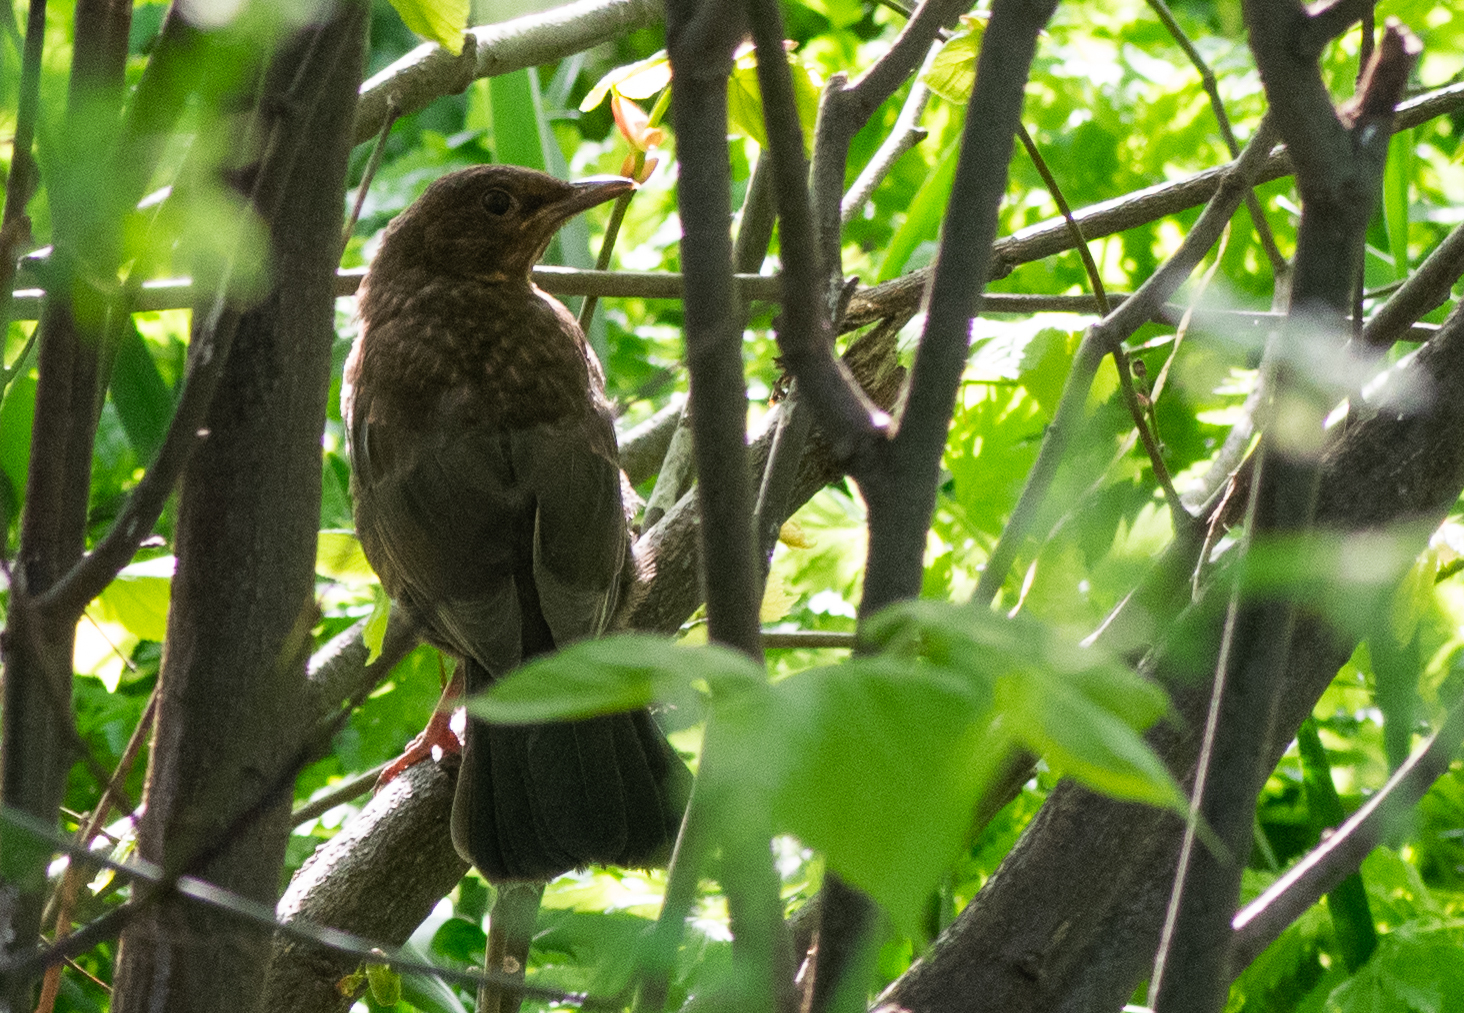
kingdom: Animalia
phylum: Chordata
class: Aves
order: Passeriformes
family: Turdidae
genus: Turdus
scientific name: Turdus merula
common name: Common blackbird
